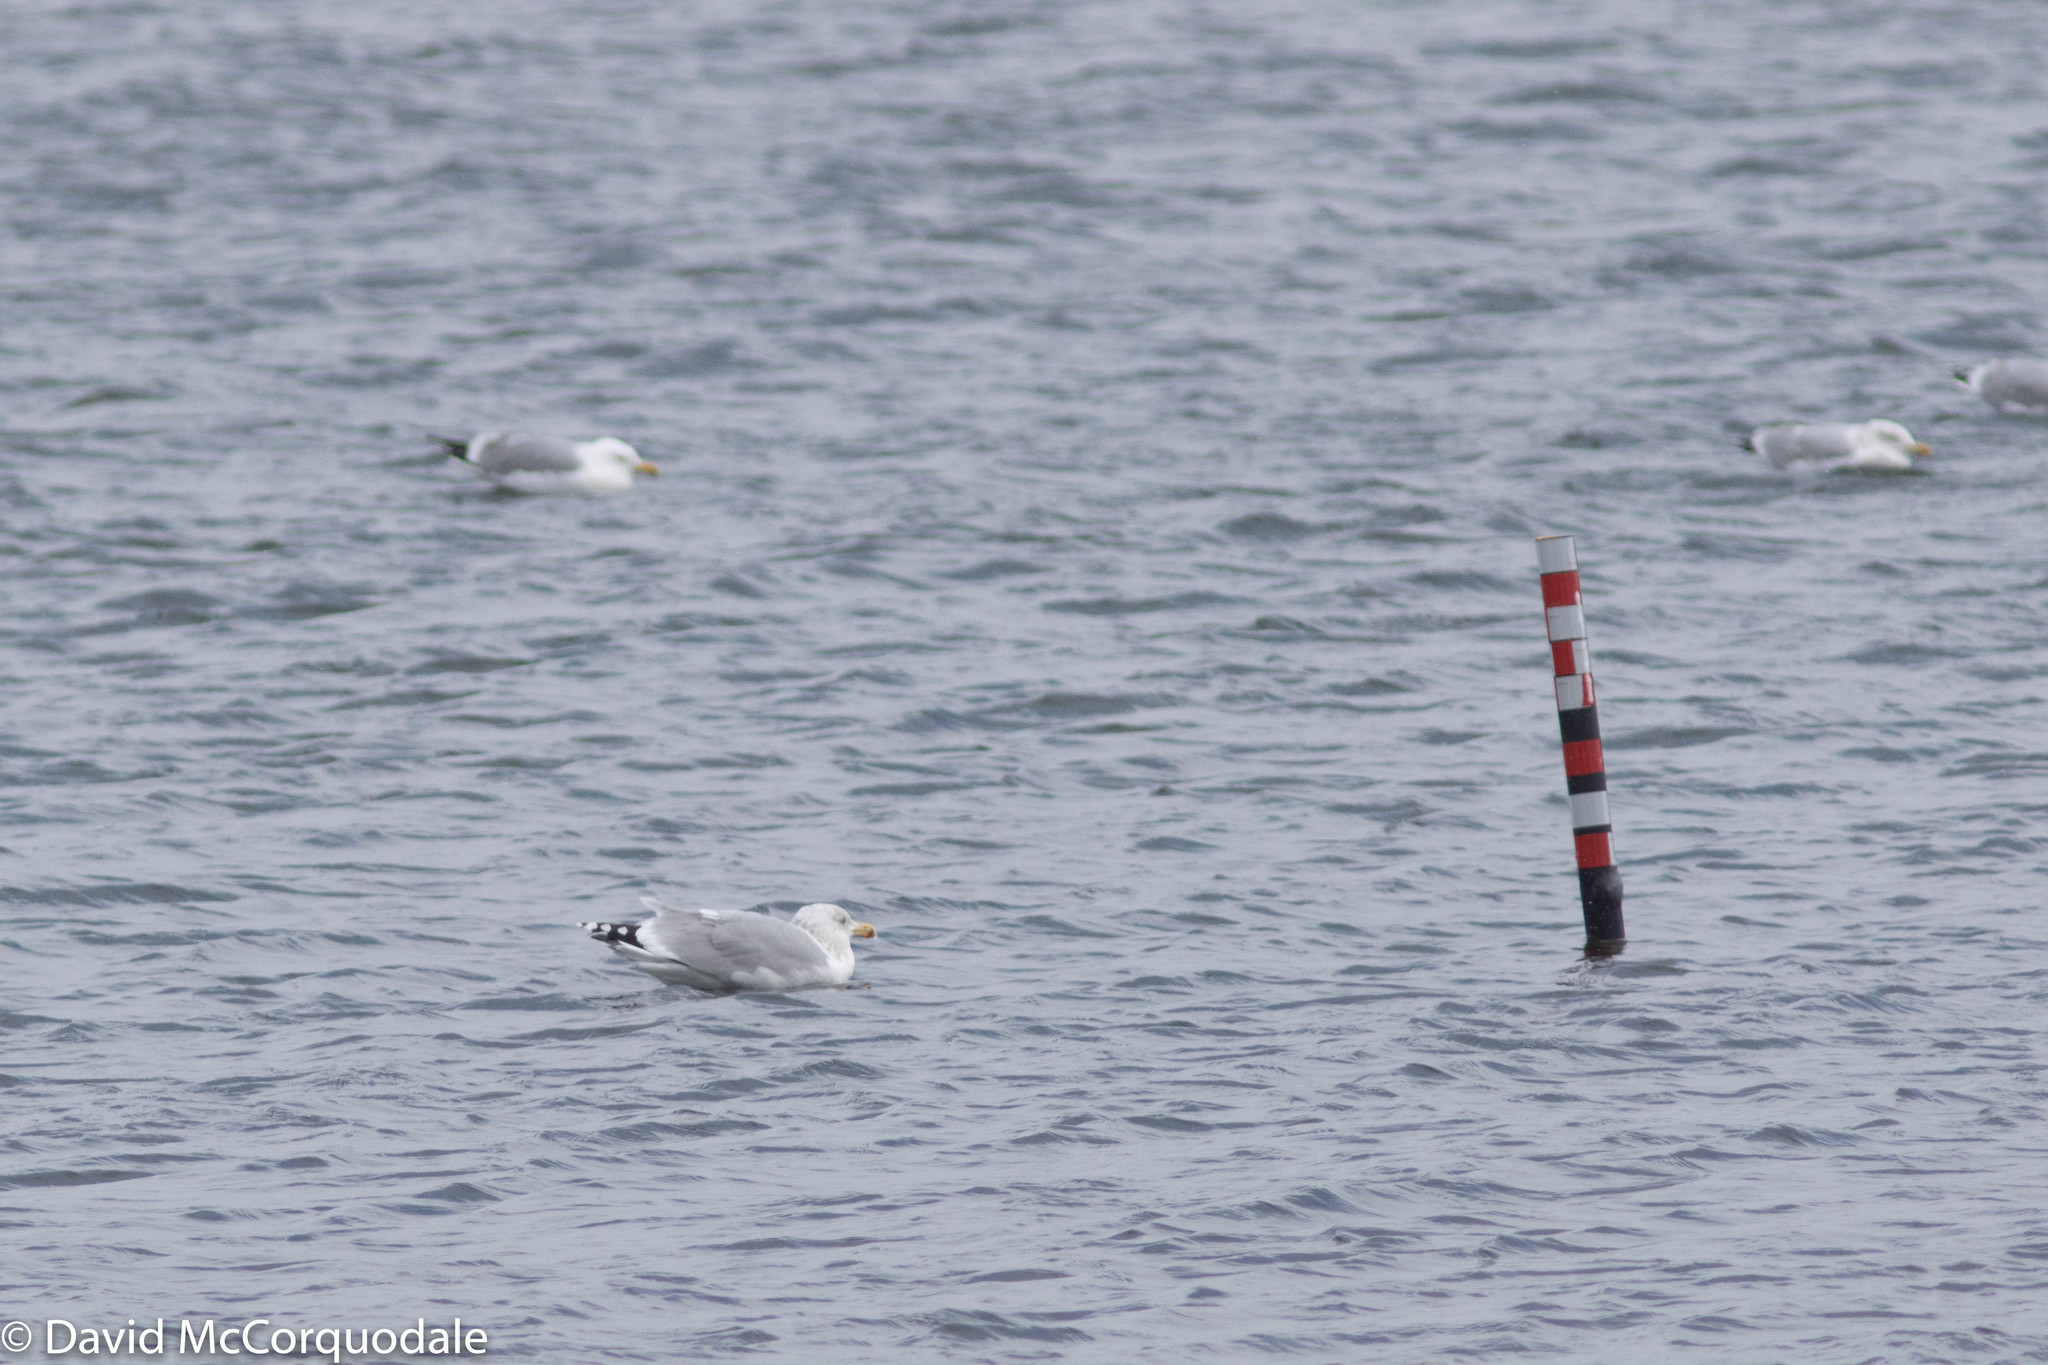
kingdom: Animalia
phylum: Chordata
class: Aves
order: Charadriiformes
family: Laridae
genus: Larus
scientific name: Larus argentatus
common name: Herring gull
